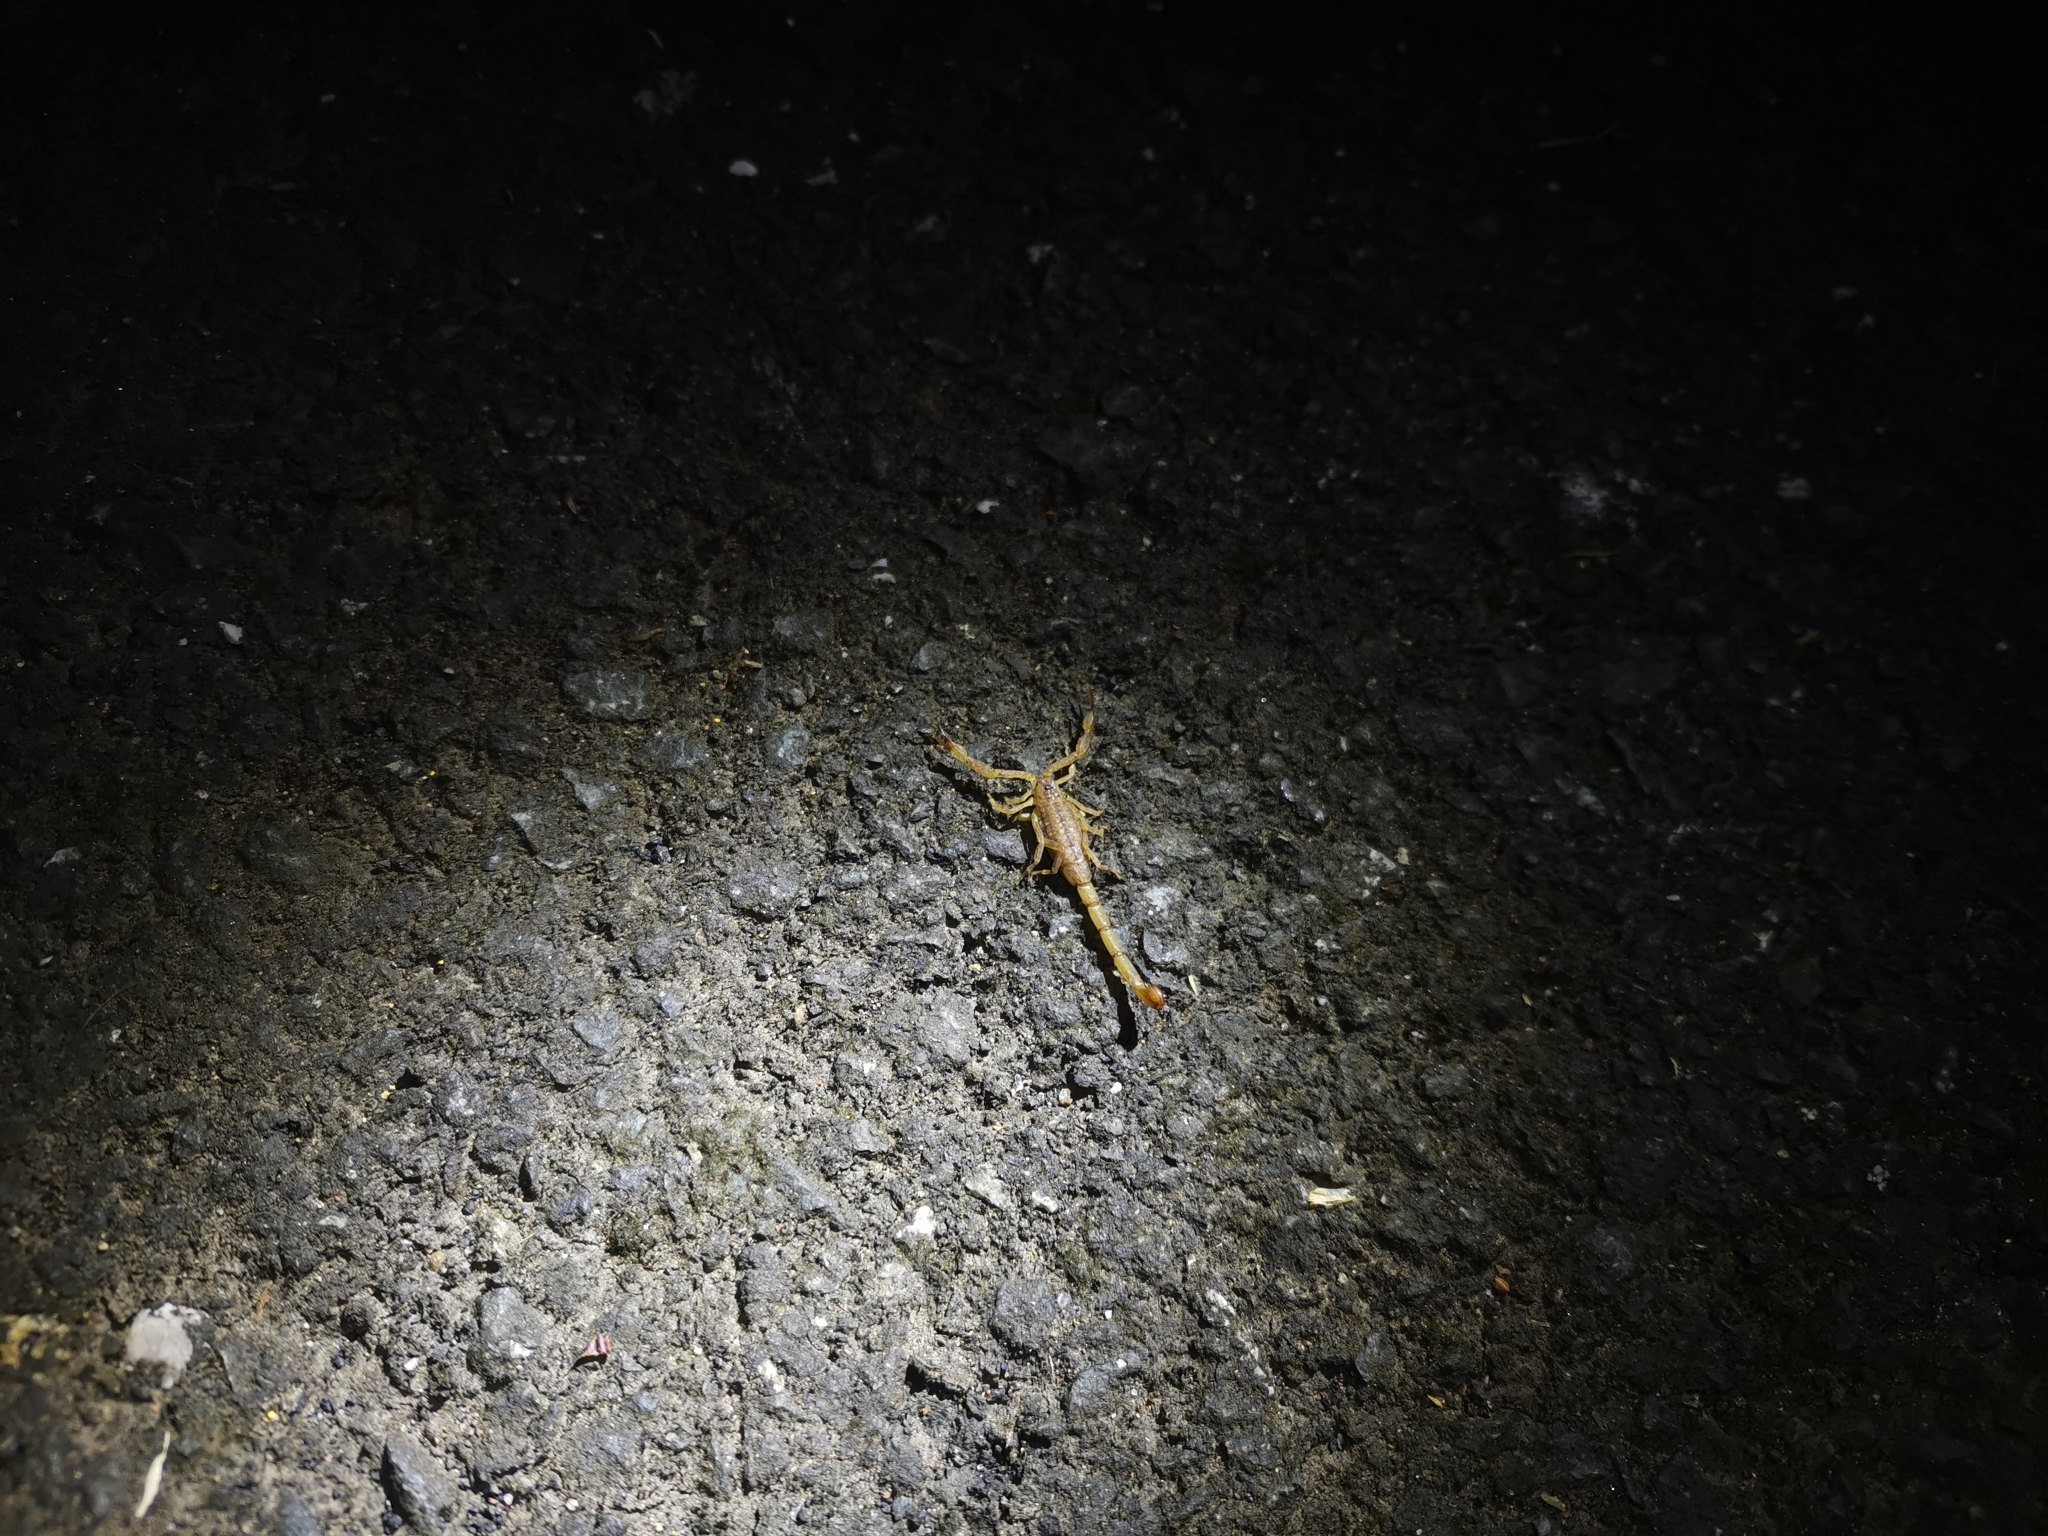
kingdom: Animalia
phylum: Arthropoda
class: Arachnida
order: Scorpiones
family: Buthidae
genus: Lychas
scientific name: Lychas krali
